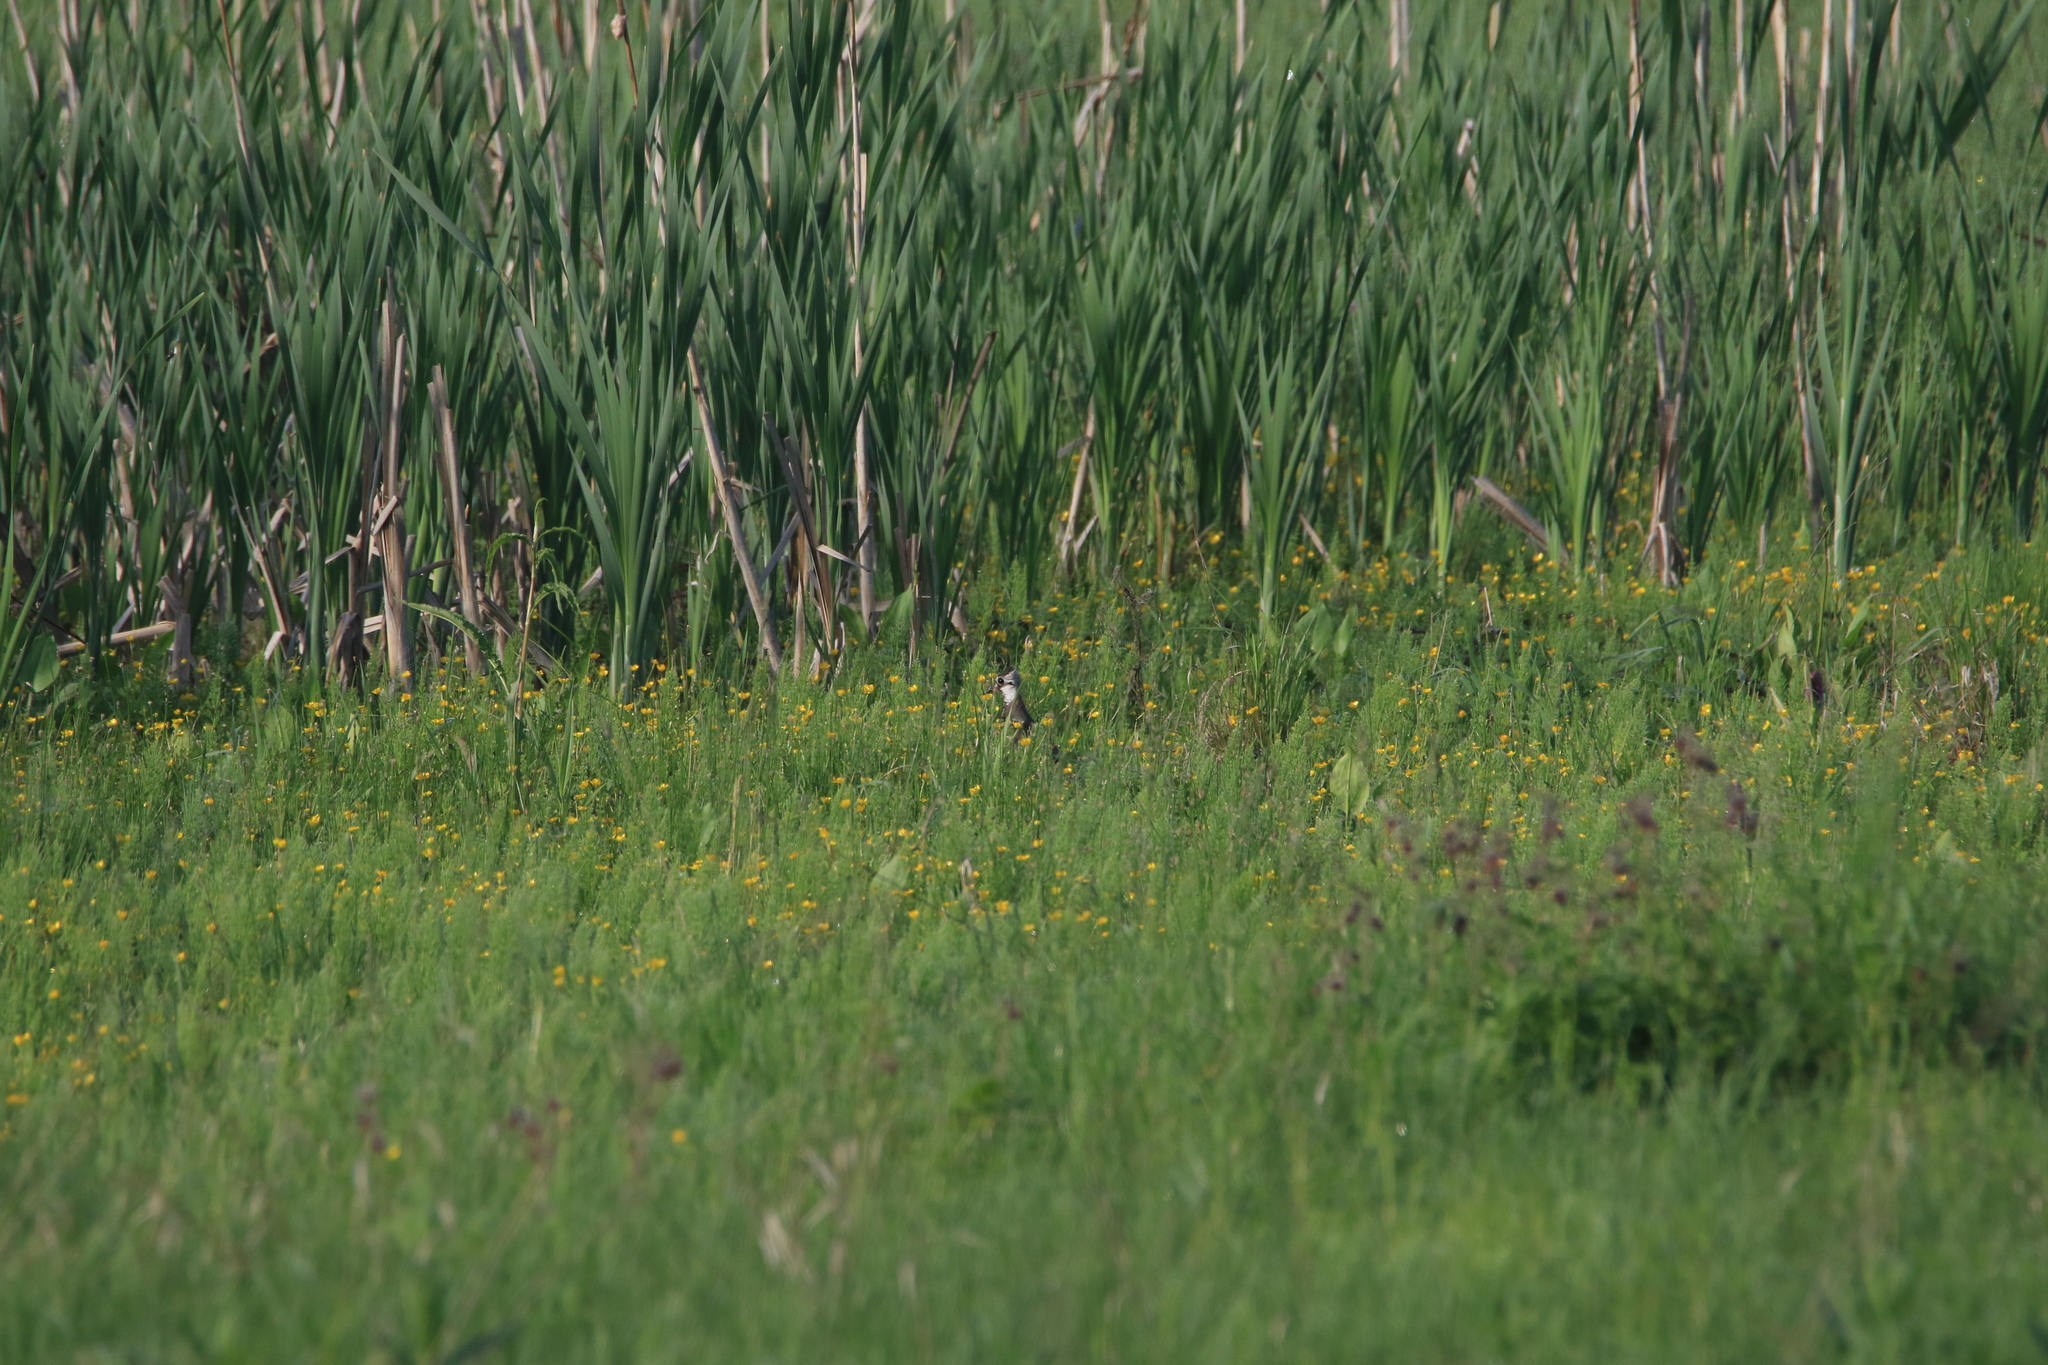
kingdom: Animalia
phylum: Chordata
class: Aves
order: Charadriiformes
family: Charadriidae
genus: Vanellus
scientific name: Vanellus vanellus
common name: Northern lapwing
